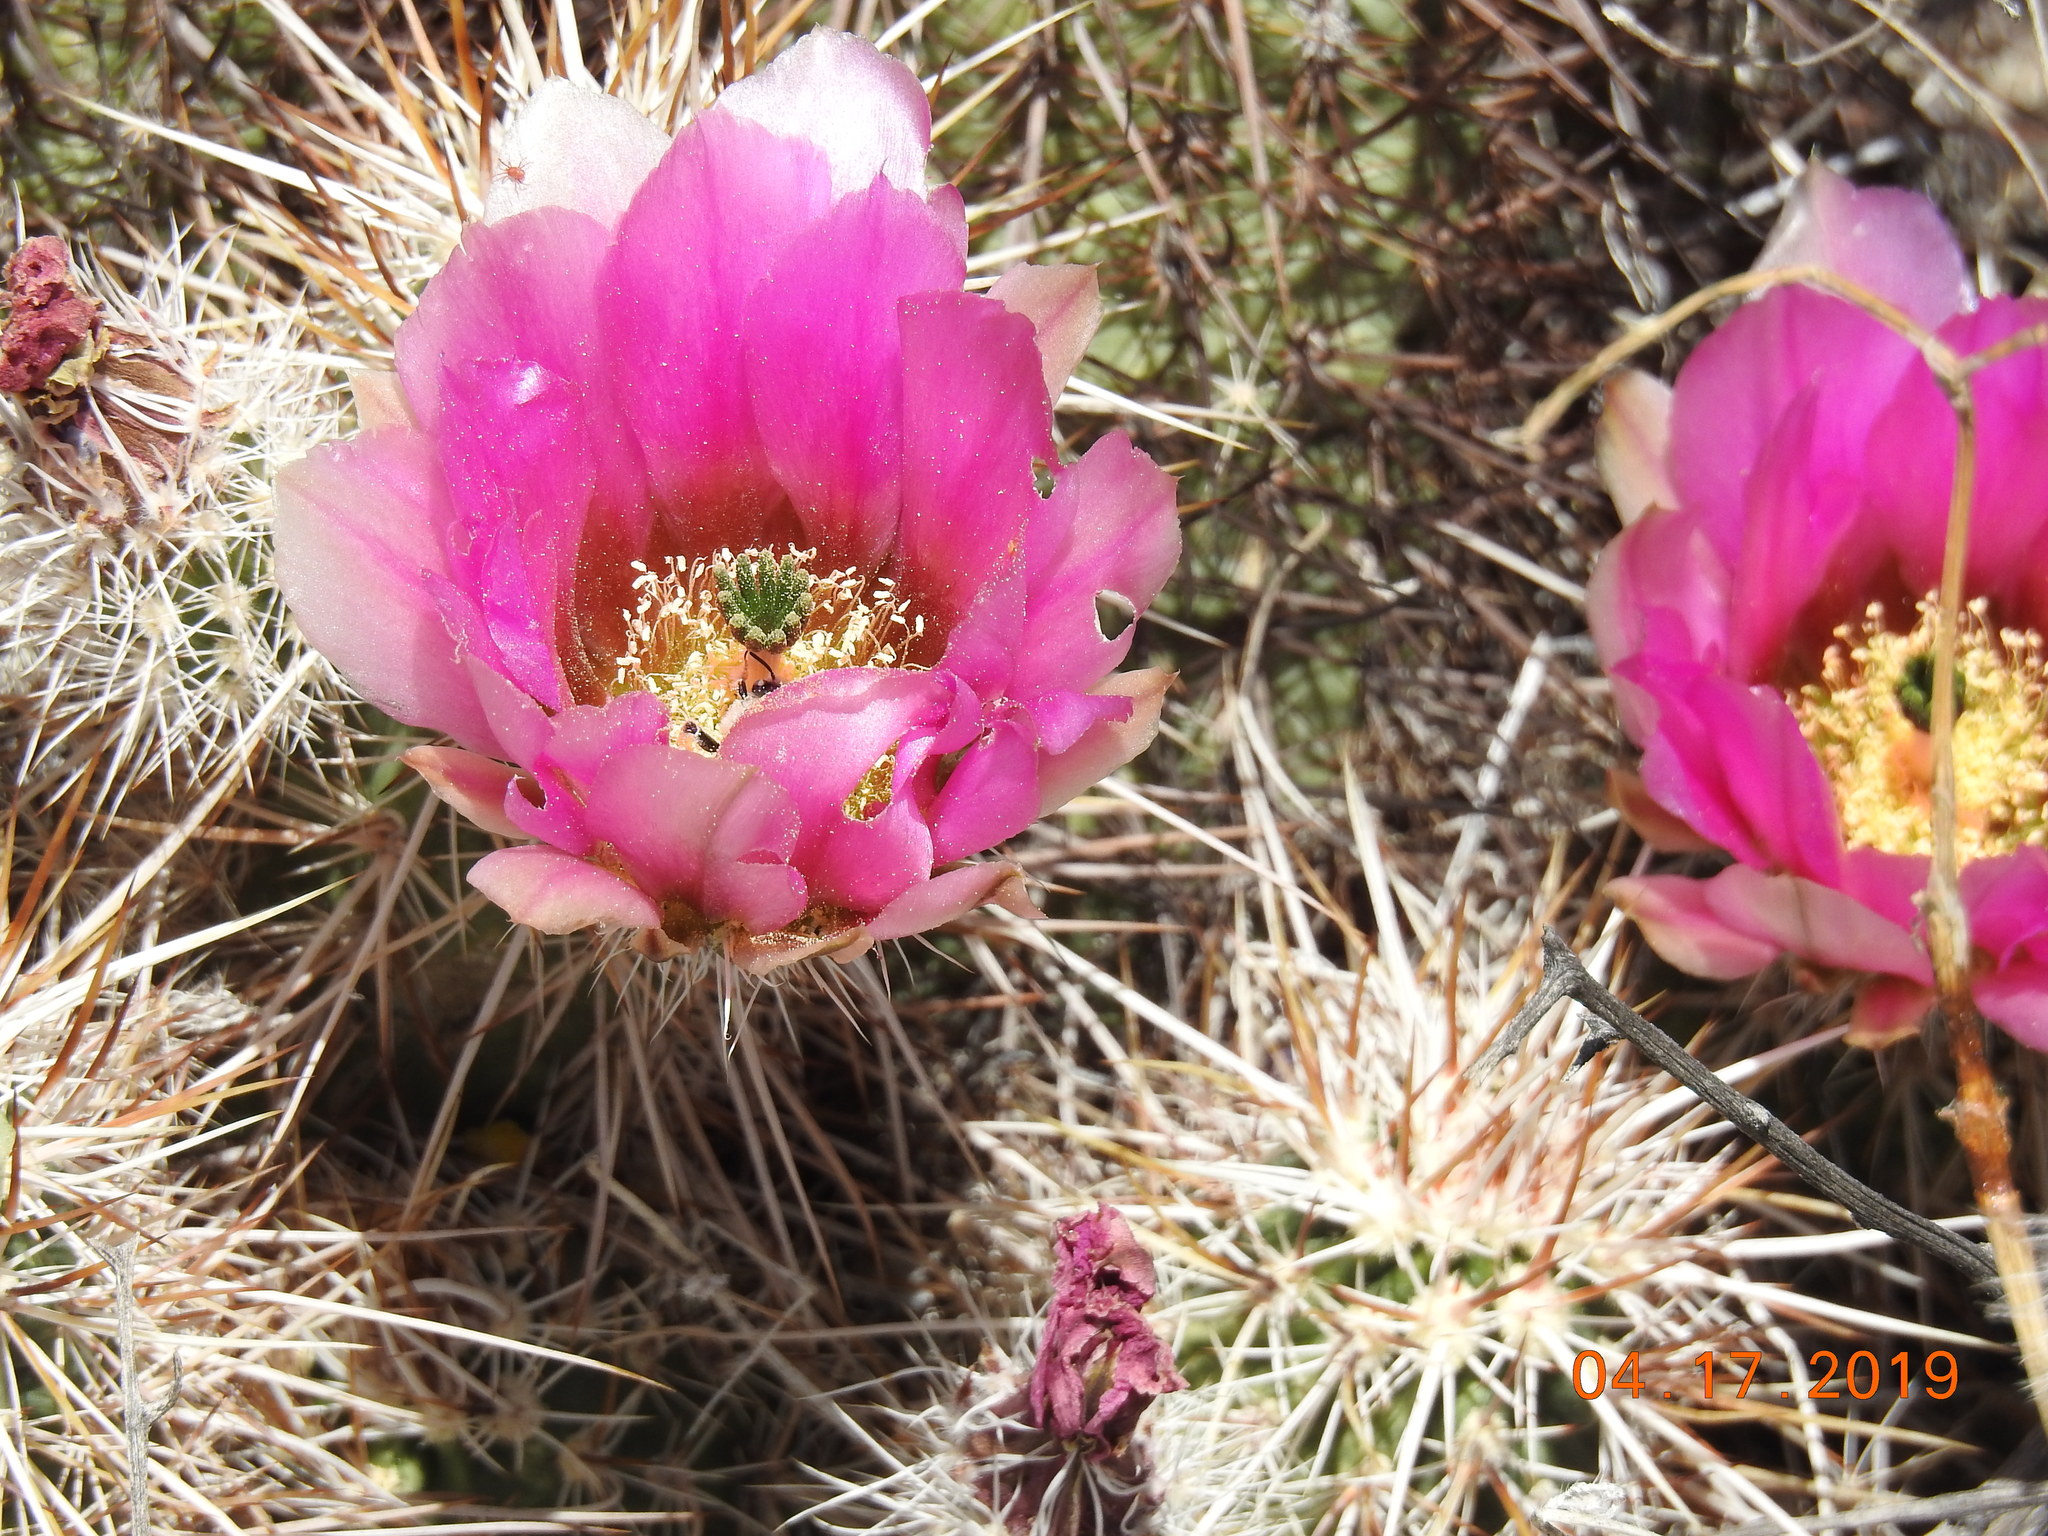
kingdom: Plantae
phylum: Tracheophyta
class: Magnoliopsida
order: Caryophyllales
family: Cactaceae
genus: Echinocereus
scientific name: Echinocereus engelmannii
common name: Engelmann's hedgehog cactus
